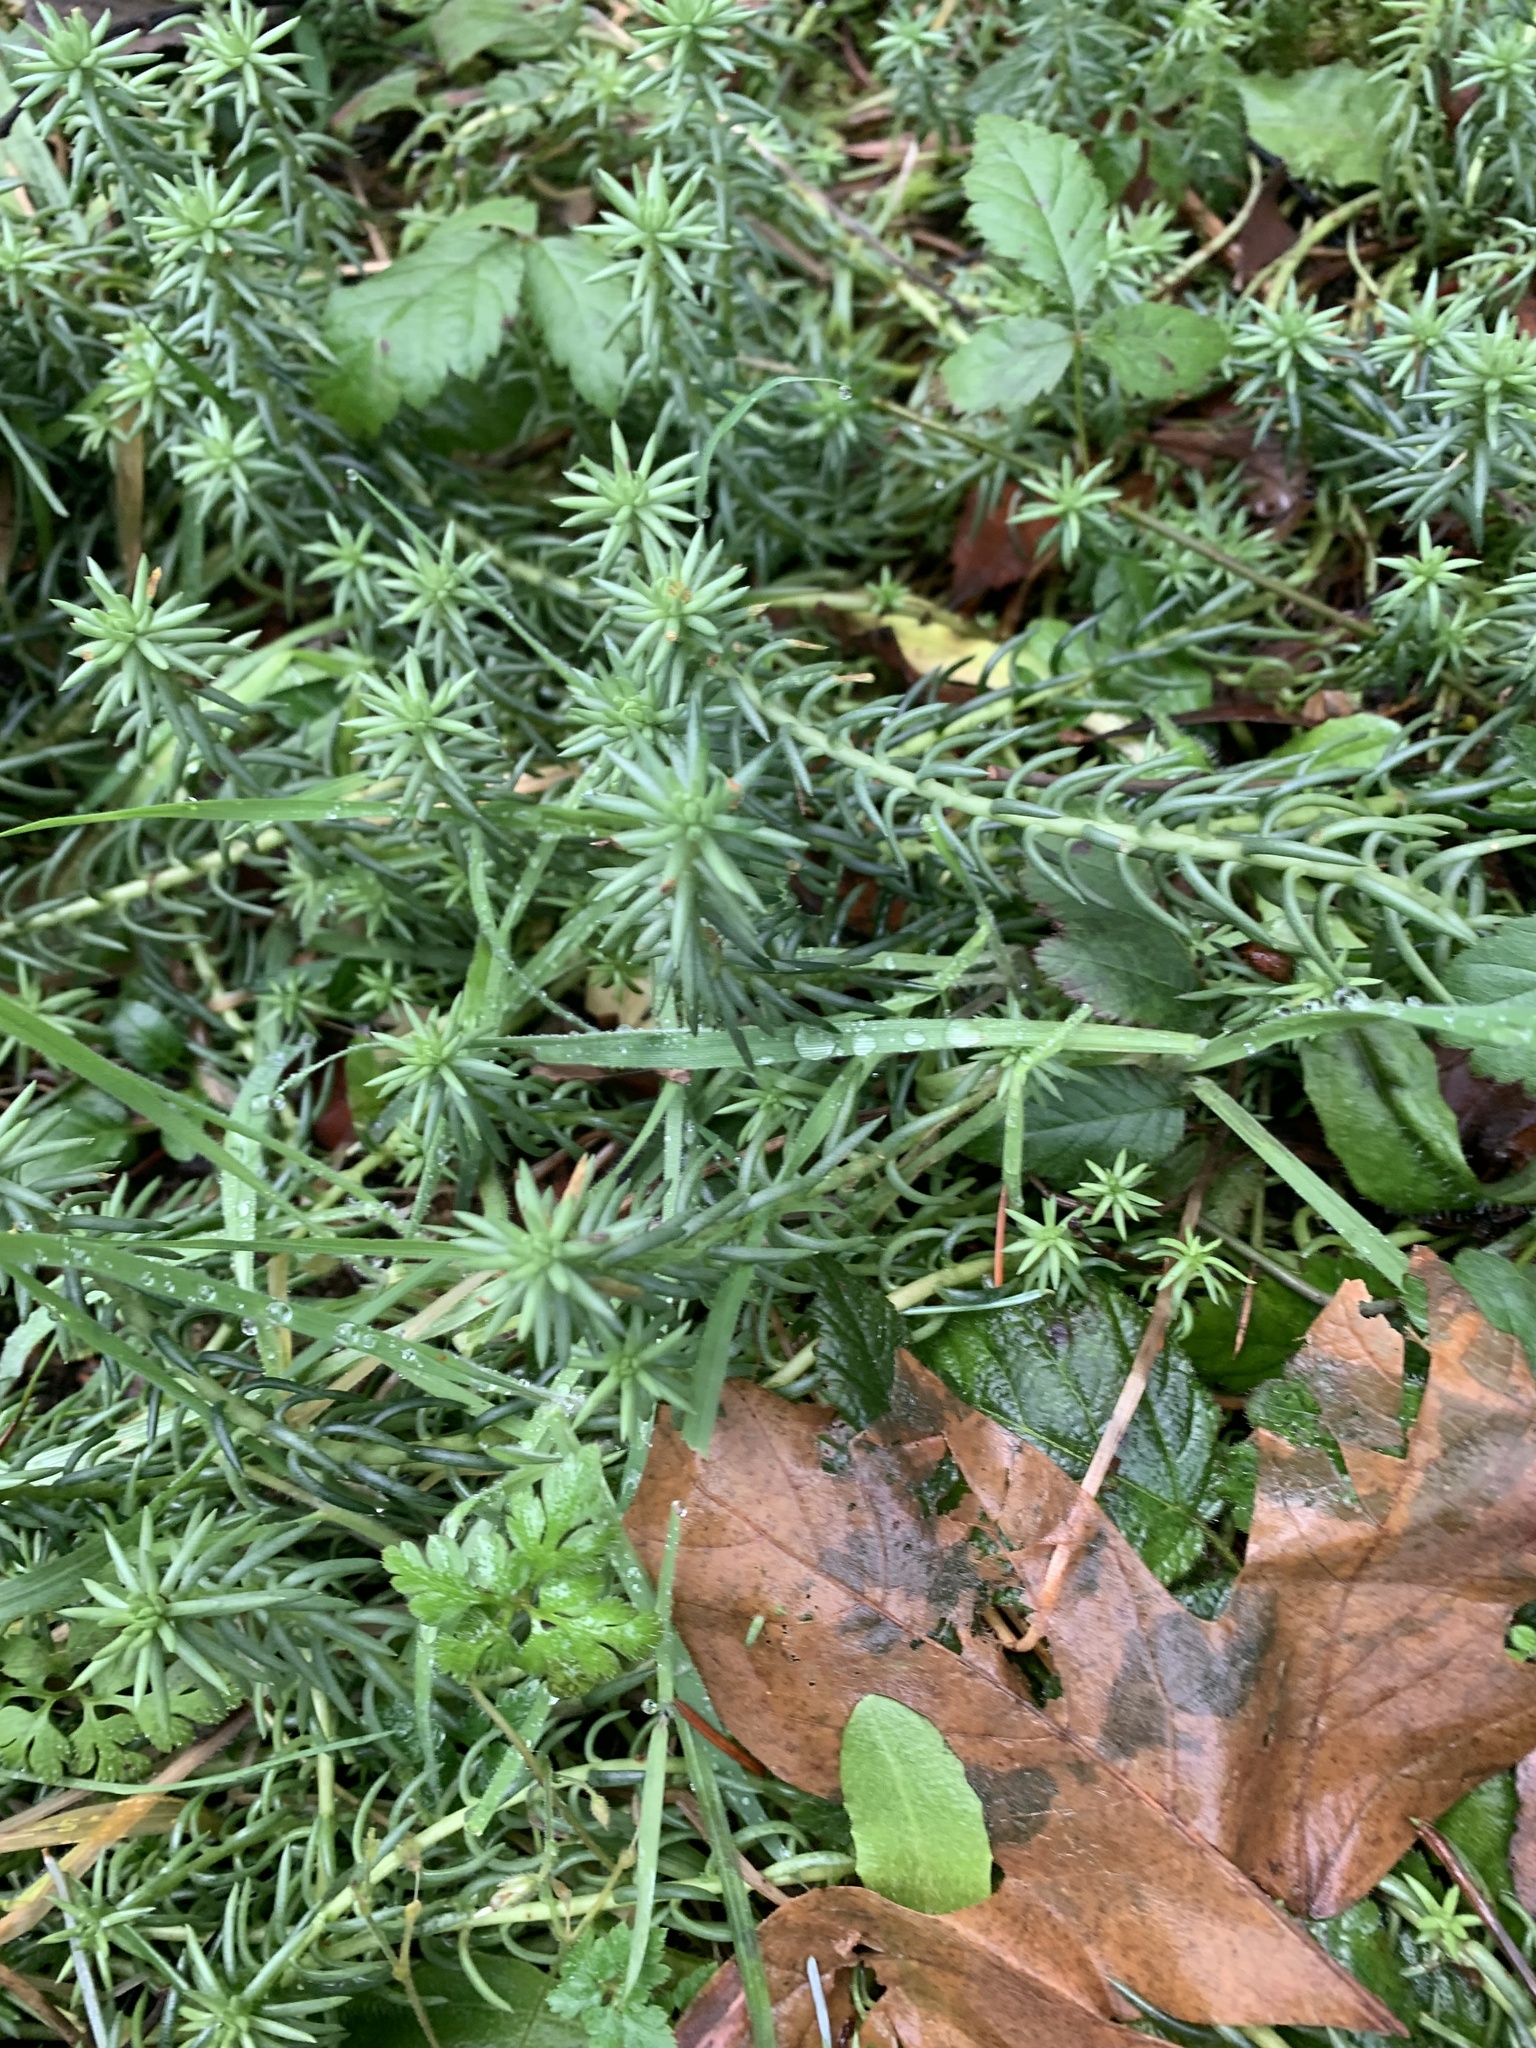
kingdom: Plantae
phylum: Tracheophyta
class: Magnoliopsida
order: Saxifragales
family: Crassulaceae
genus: Petrosedum
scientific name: Petrosedum rupestre
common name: Jenny's stonecrop
